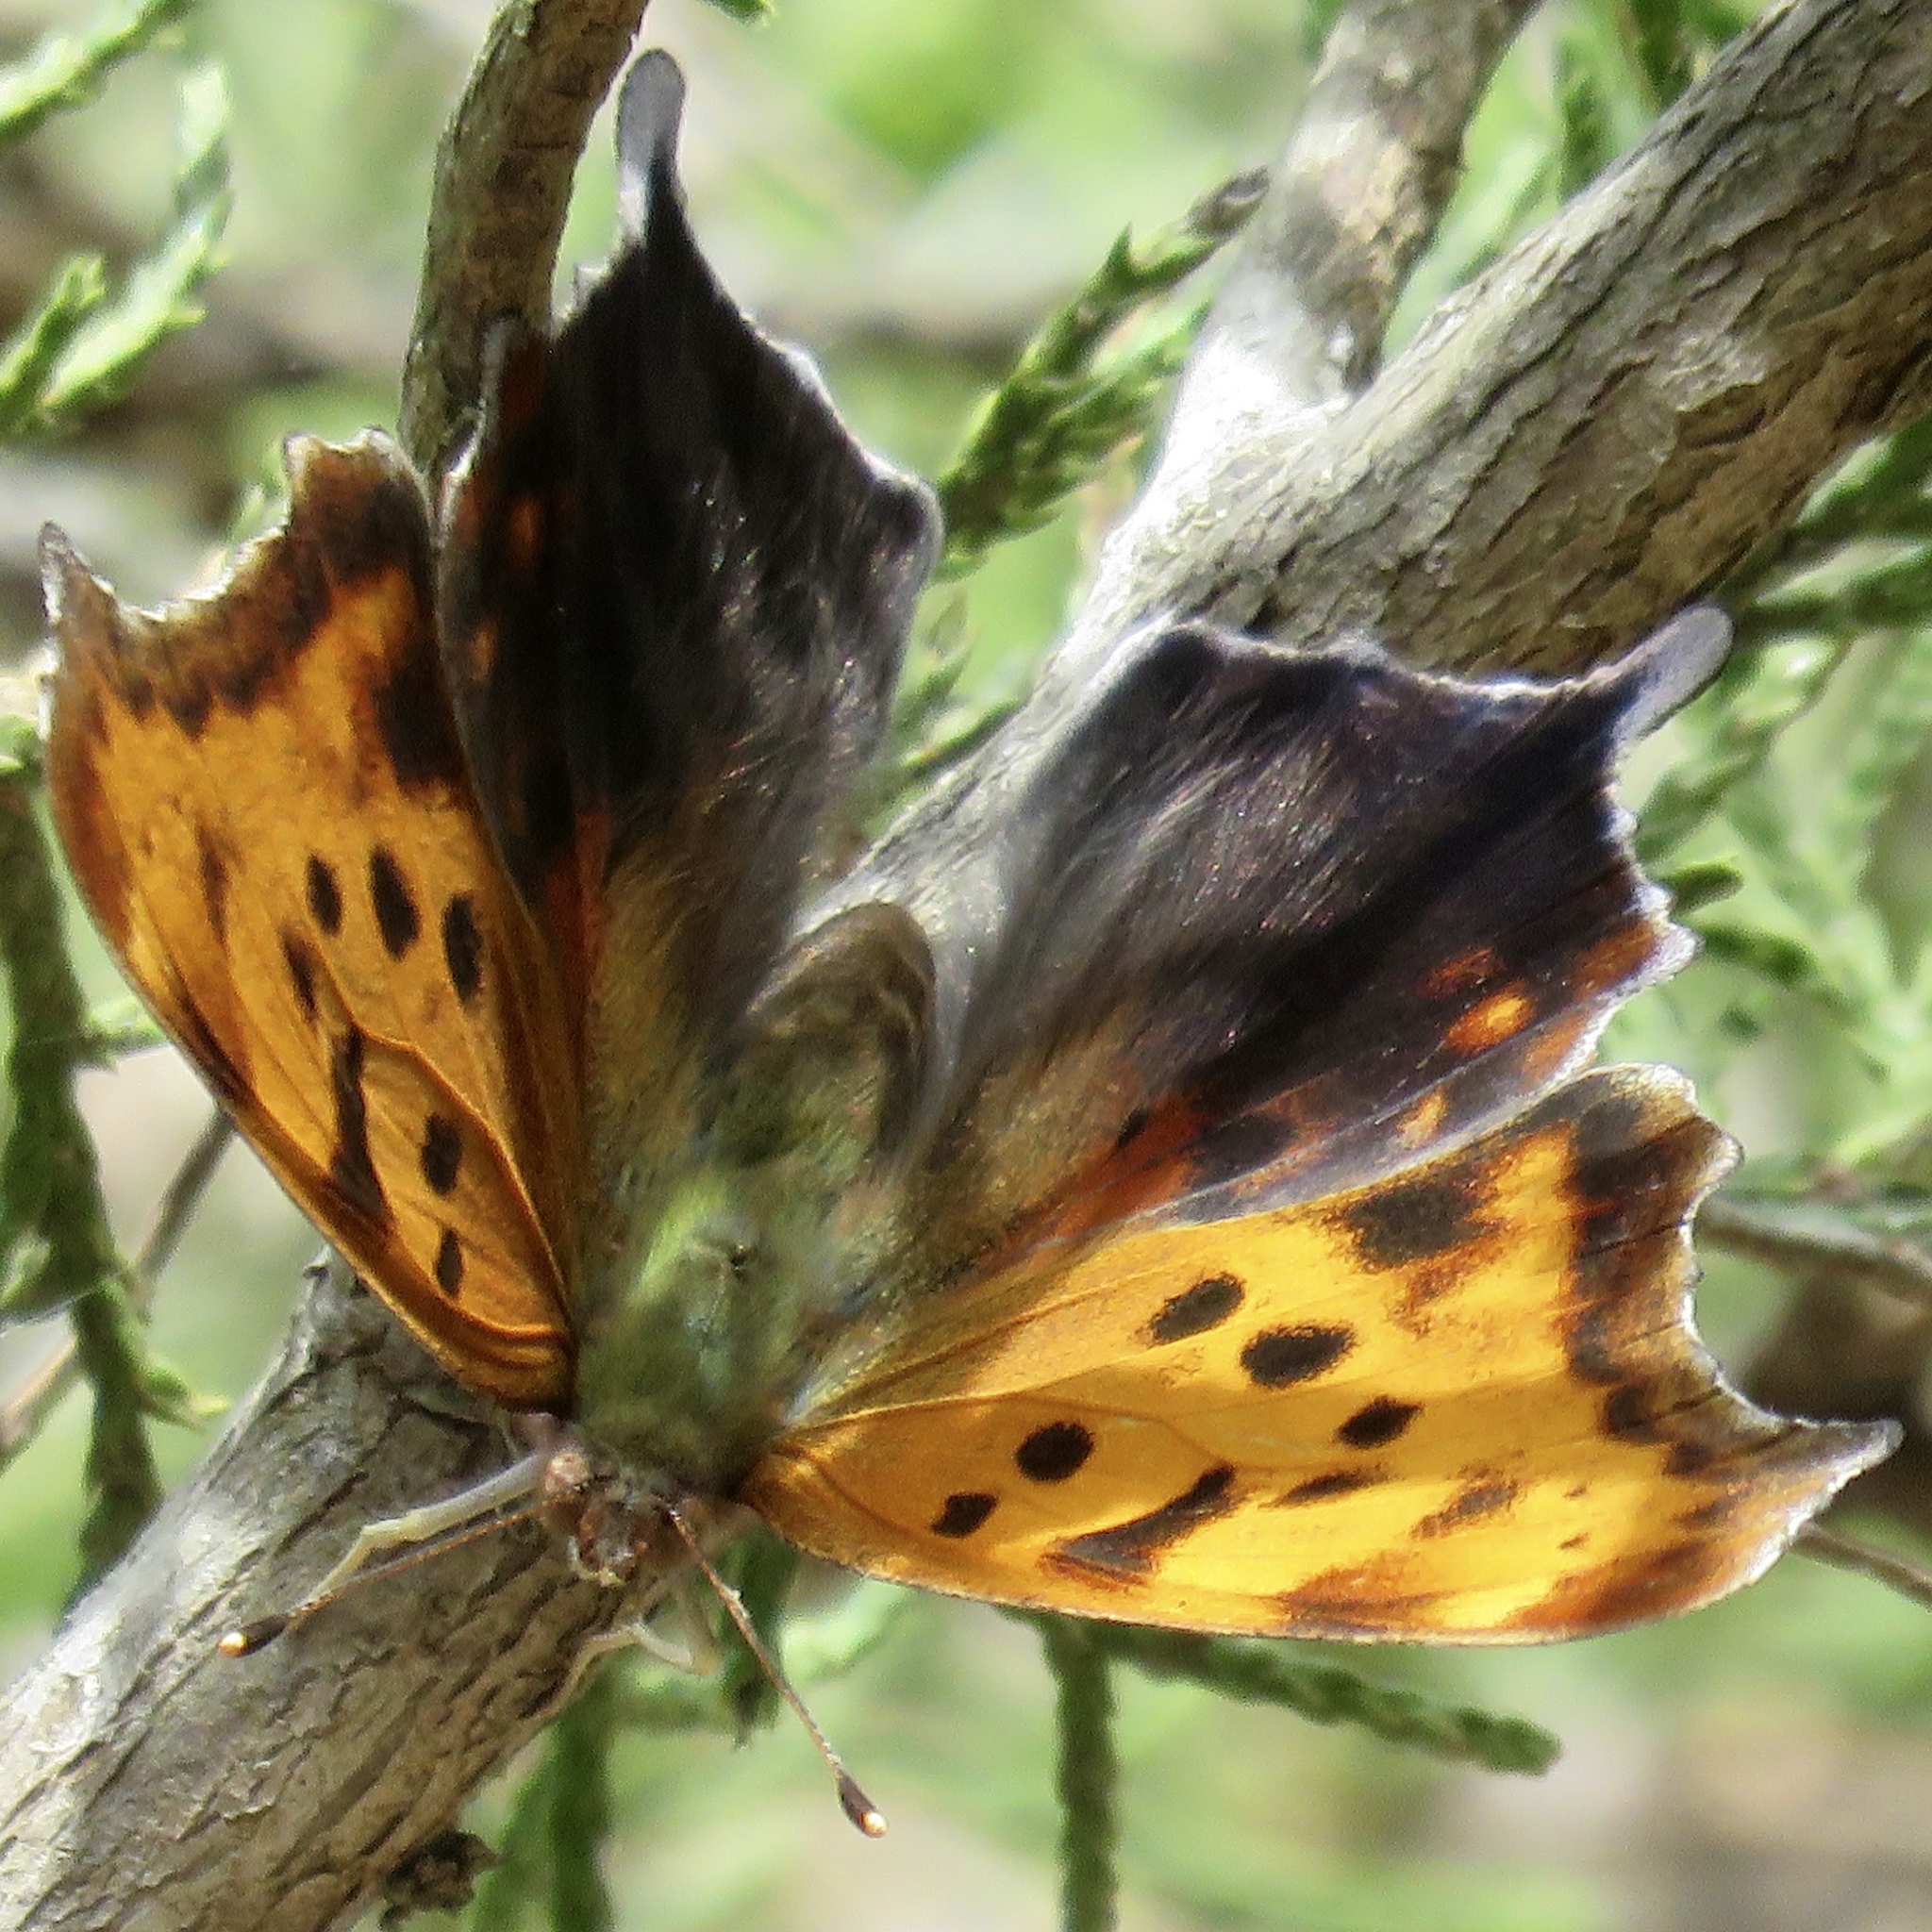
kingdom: Animalia
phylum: Arthropoda
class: Insecta
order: Lepidoptera
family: Nymphalidae
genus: Polygonia
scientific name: Polygonia interrogationis
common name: Question mark
